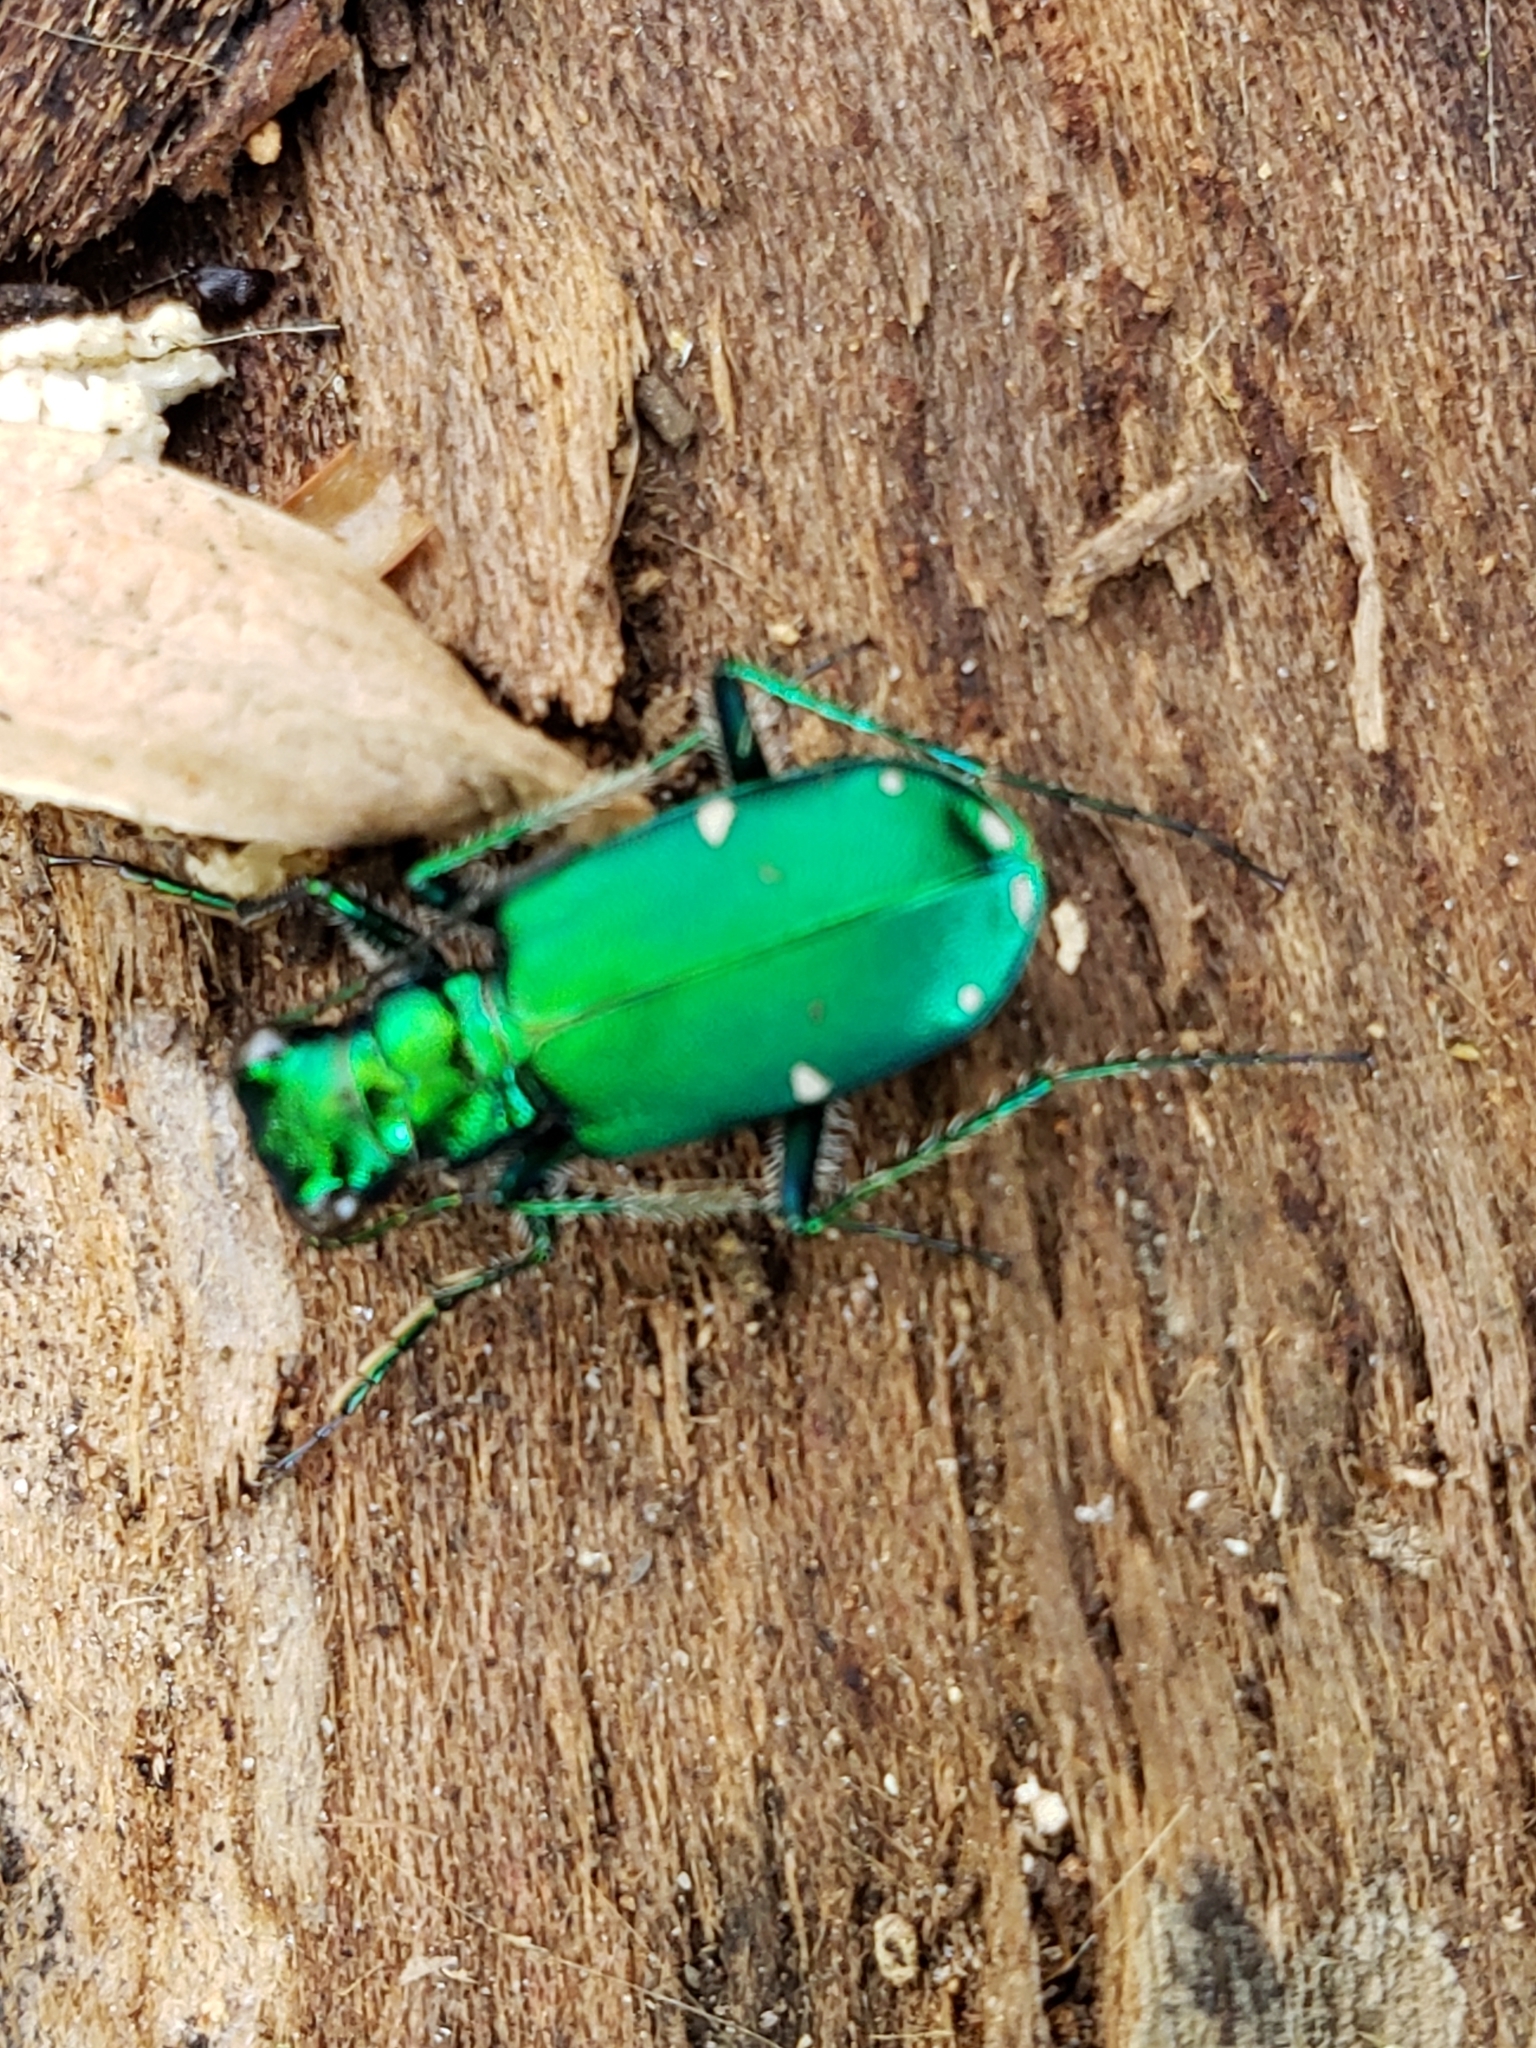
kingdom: Animalia
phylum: Arthropoda
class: Insecta
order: Coleoptera
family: Carabidae
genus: Cicindela
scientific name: Cicindela sexguttata
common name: Six-spotted tiger beetle
